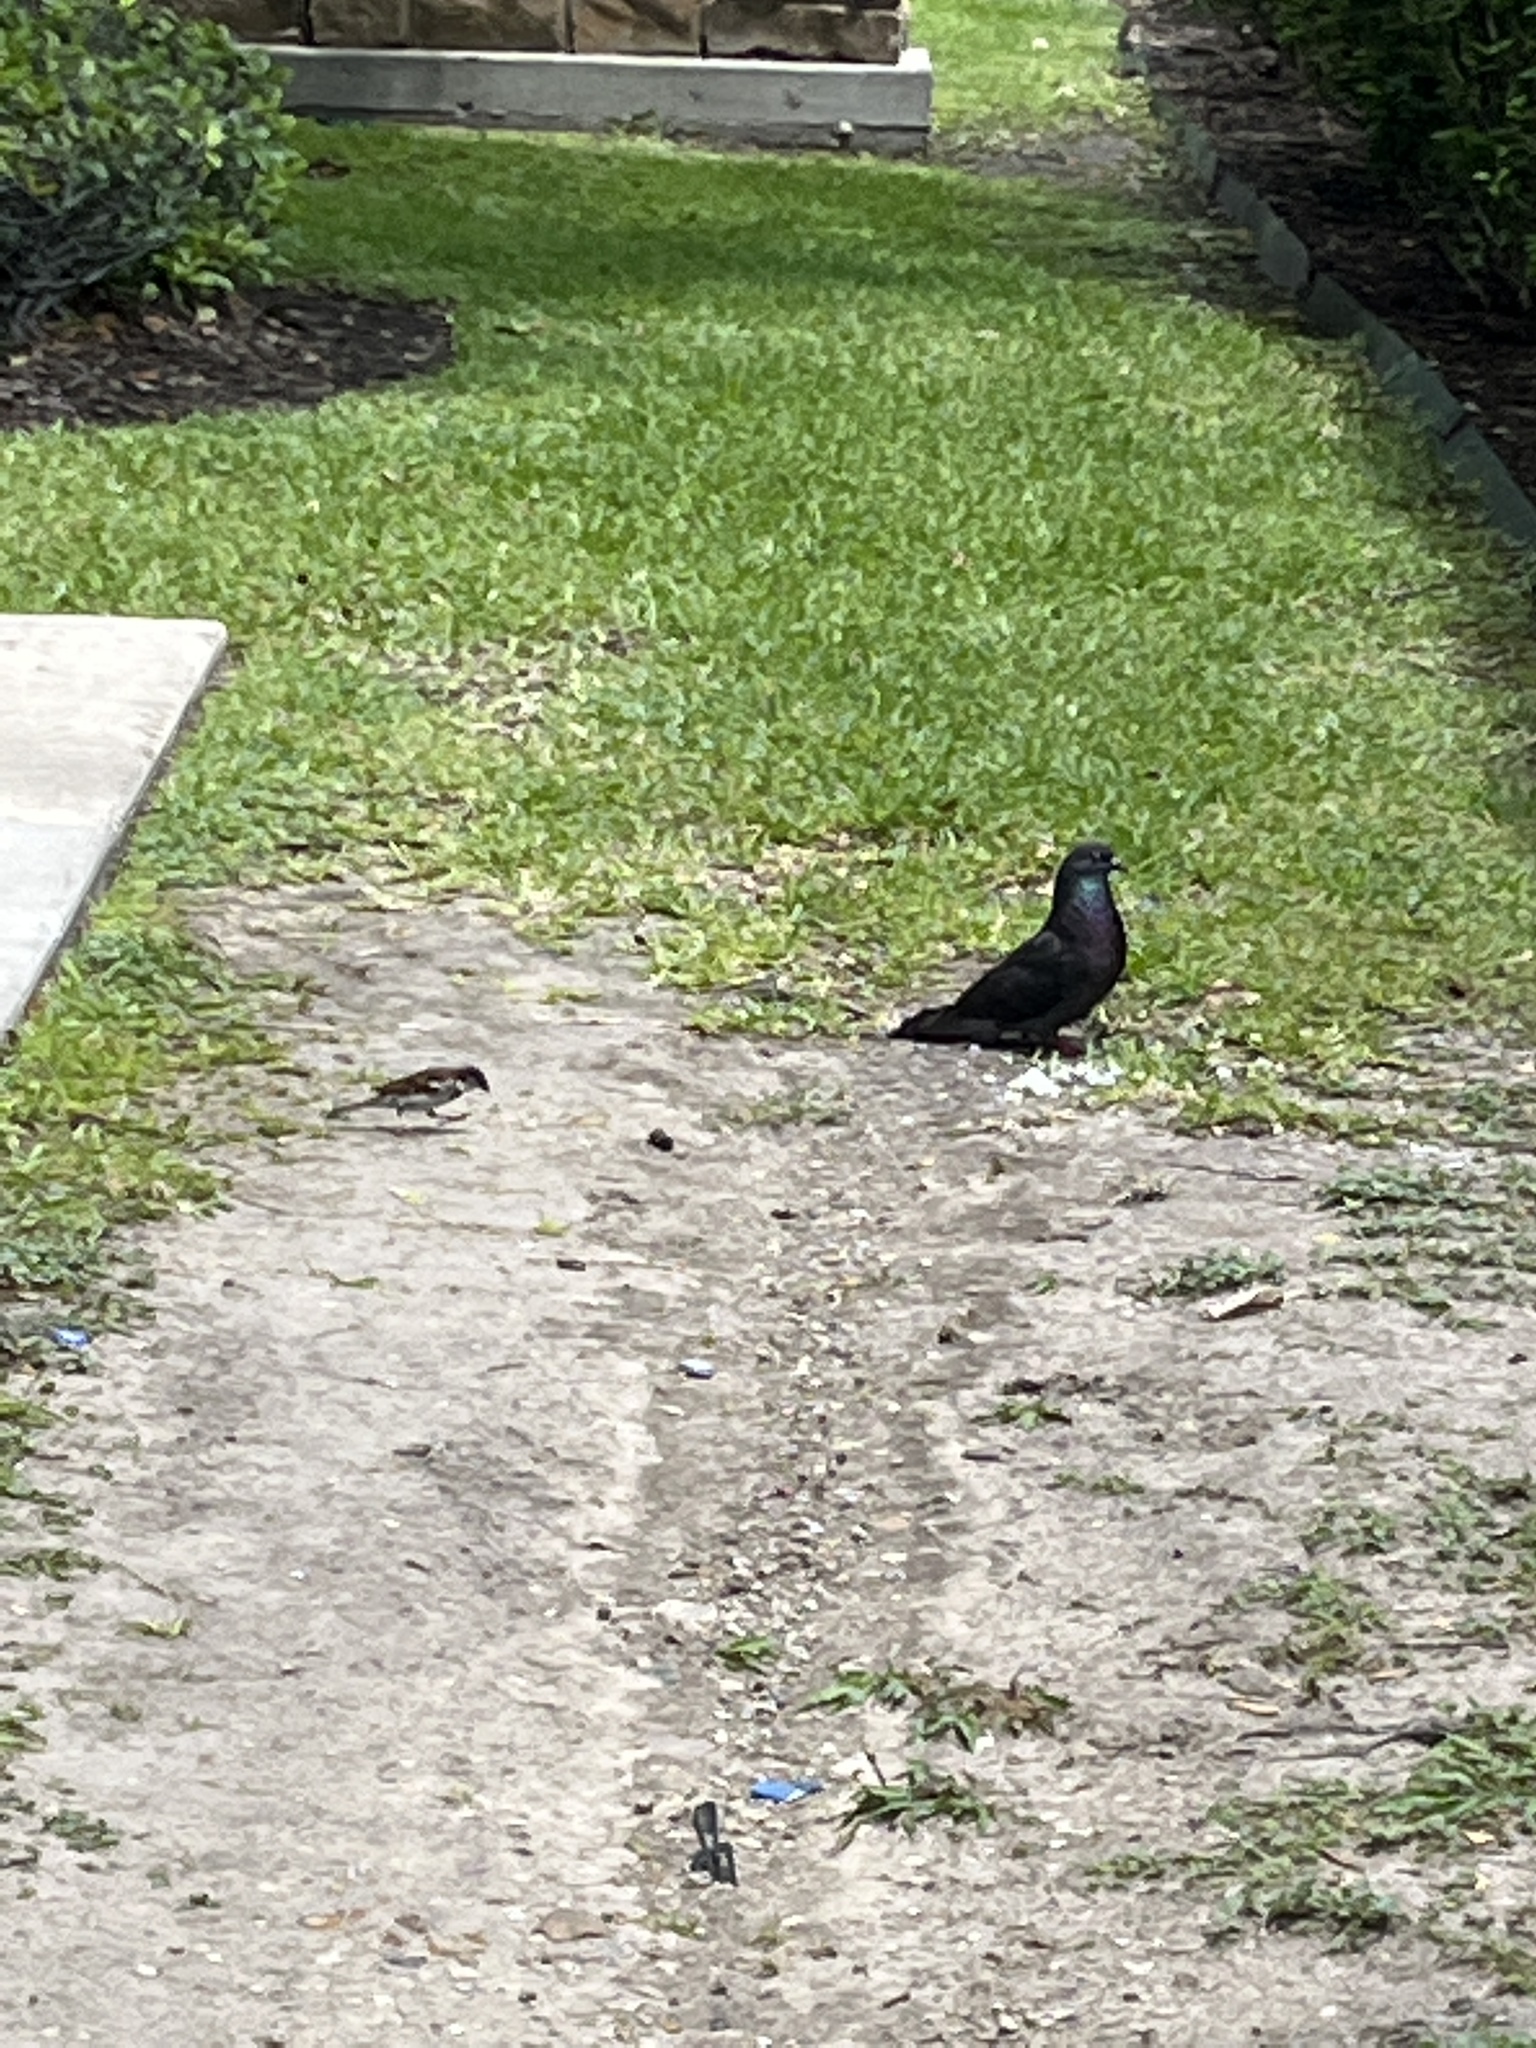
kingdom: Animalia
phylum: Chordata
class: Aves
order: Columbiformes
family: Columbidae
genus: Columba
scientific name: Columba livia
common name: Rock pigeon
